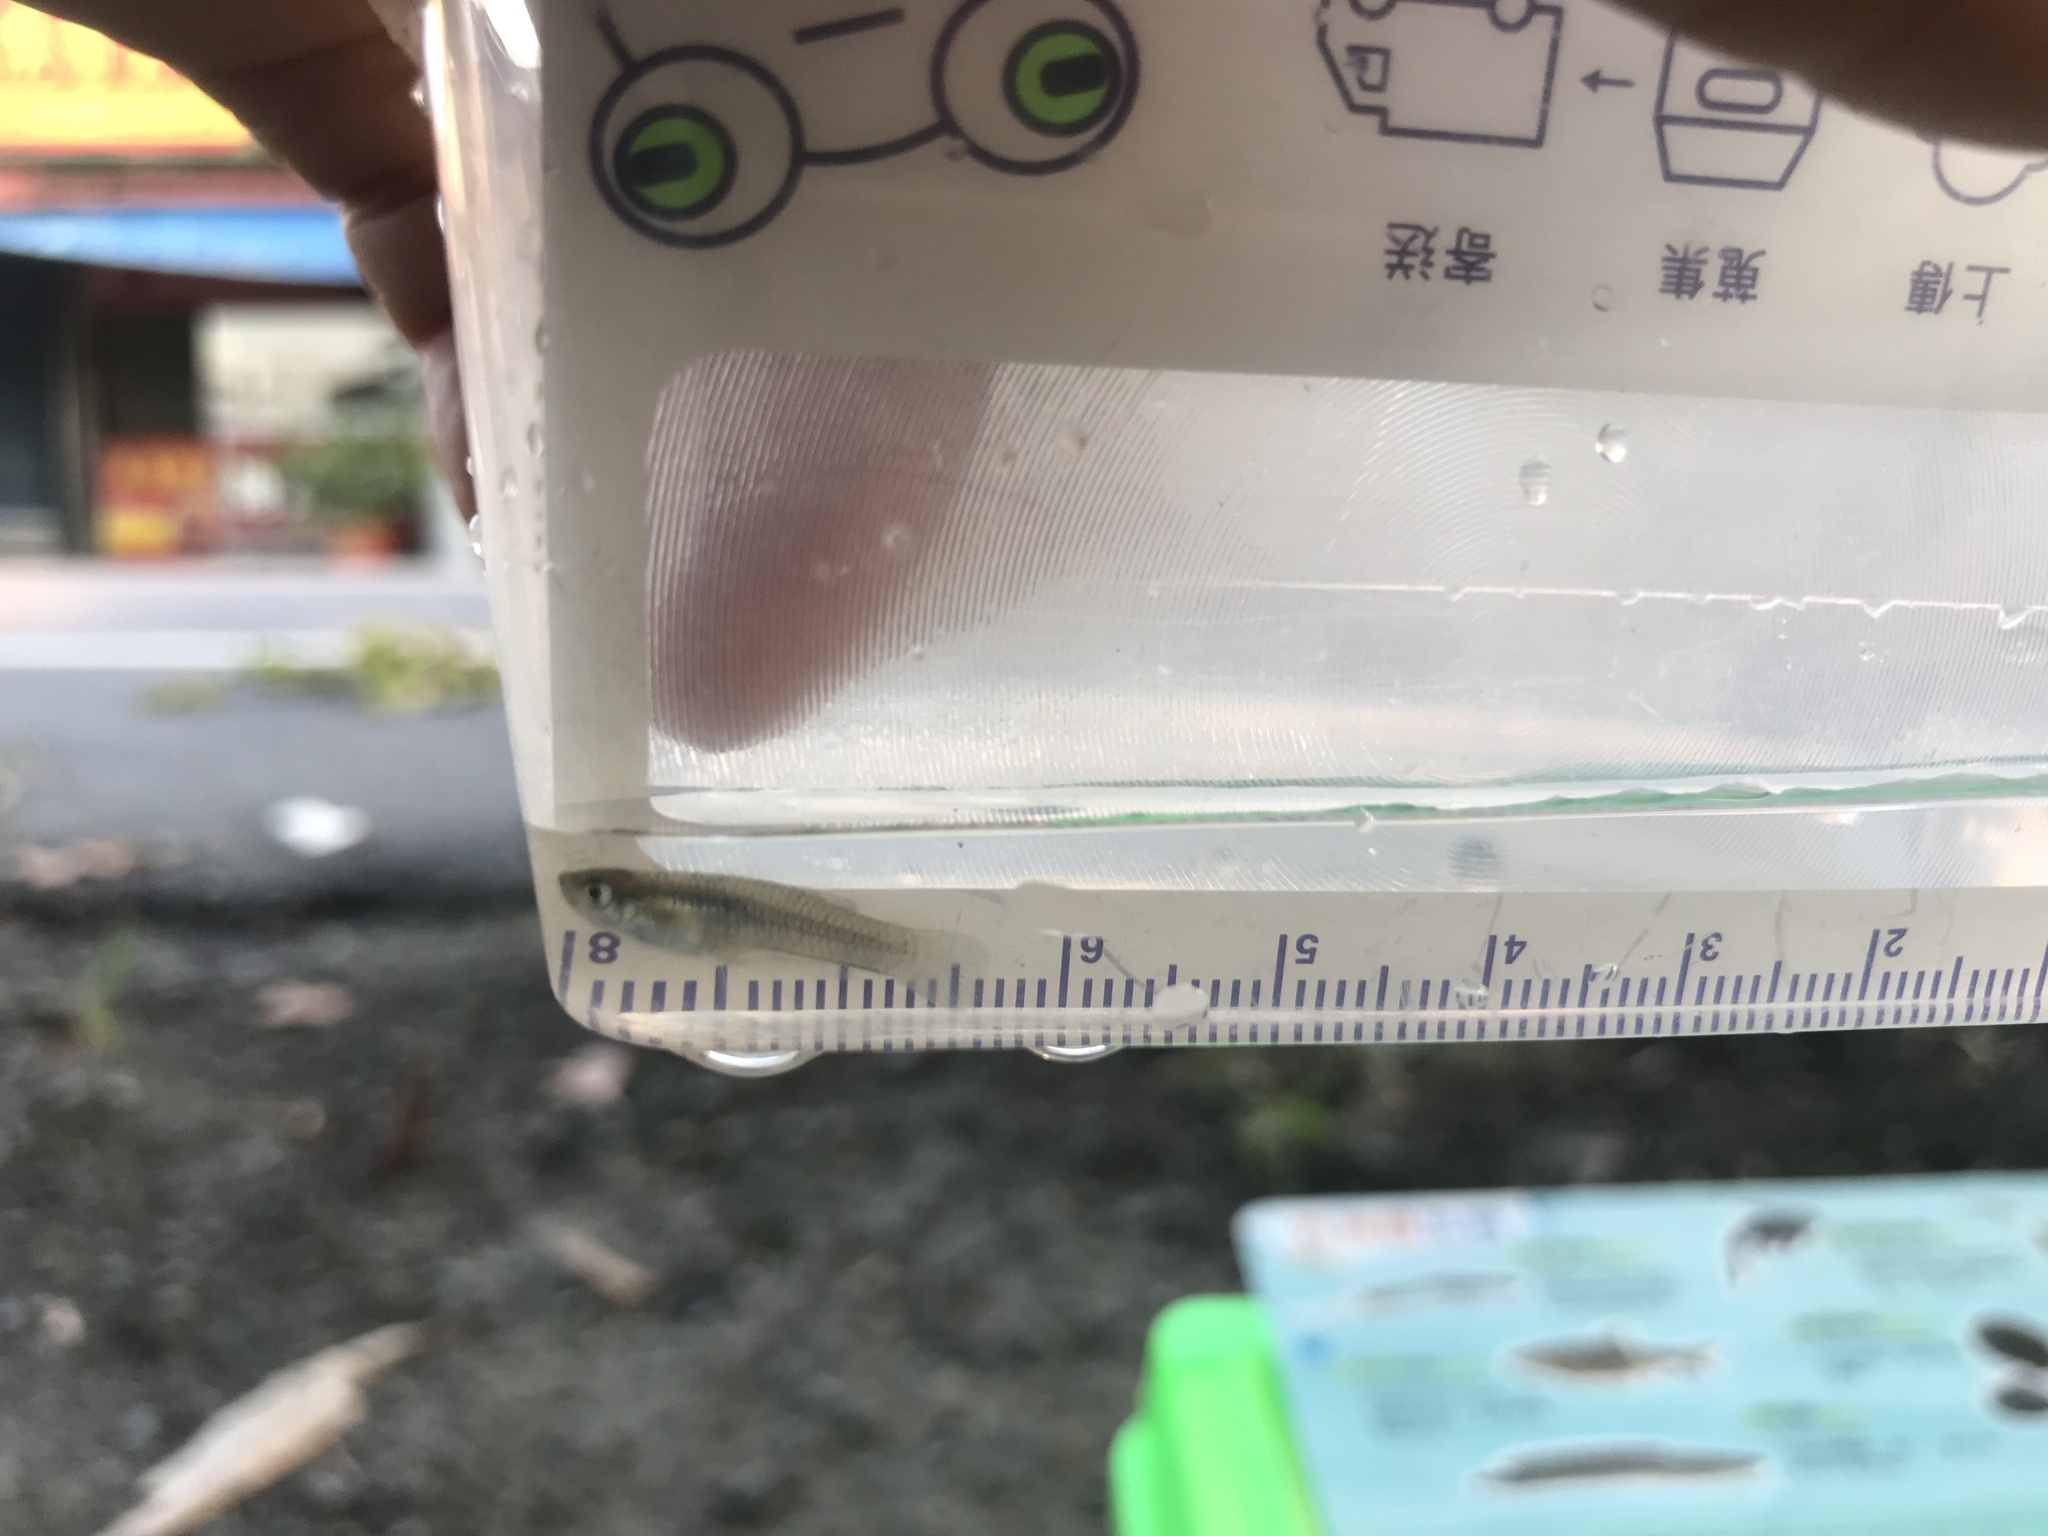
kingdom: Animalia
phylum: Chordata
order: Cyprinodontiformes
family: Poeciliidae
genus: Gambusia
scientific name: Gambusia affinis
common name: Mosquitofish
